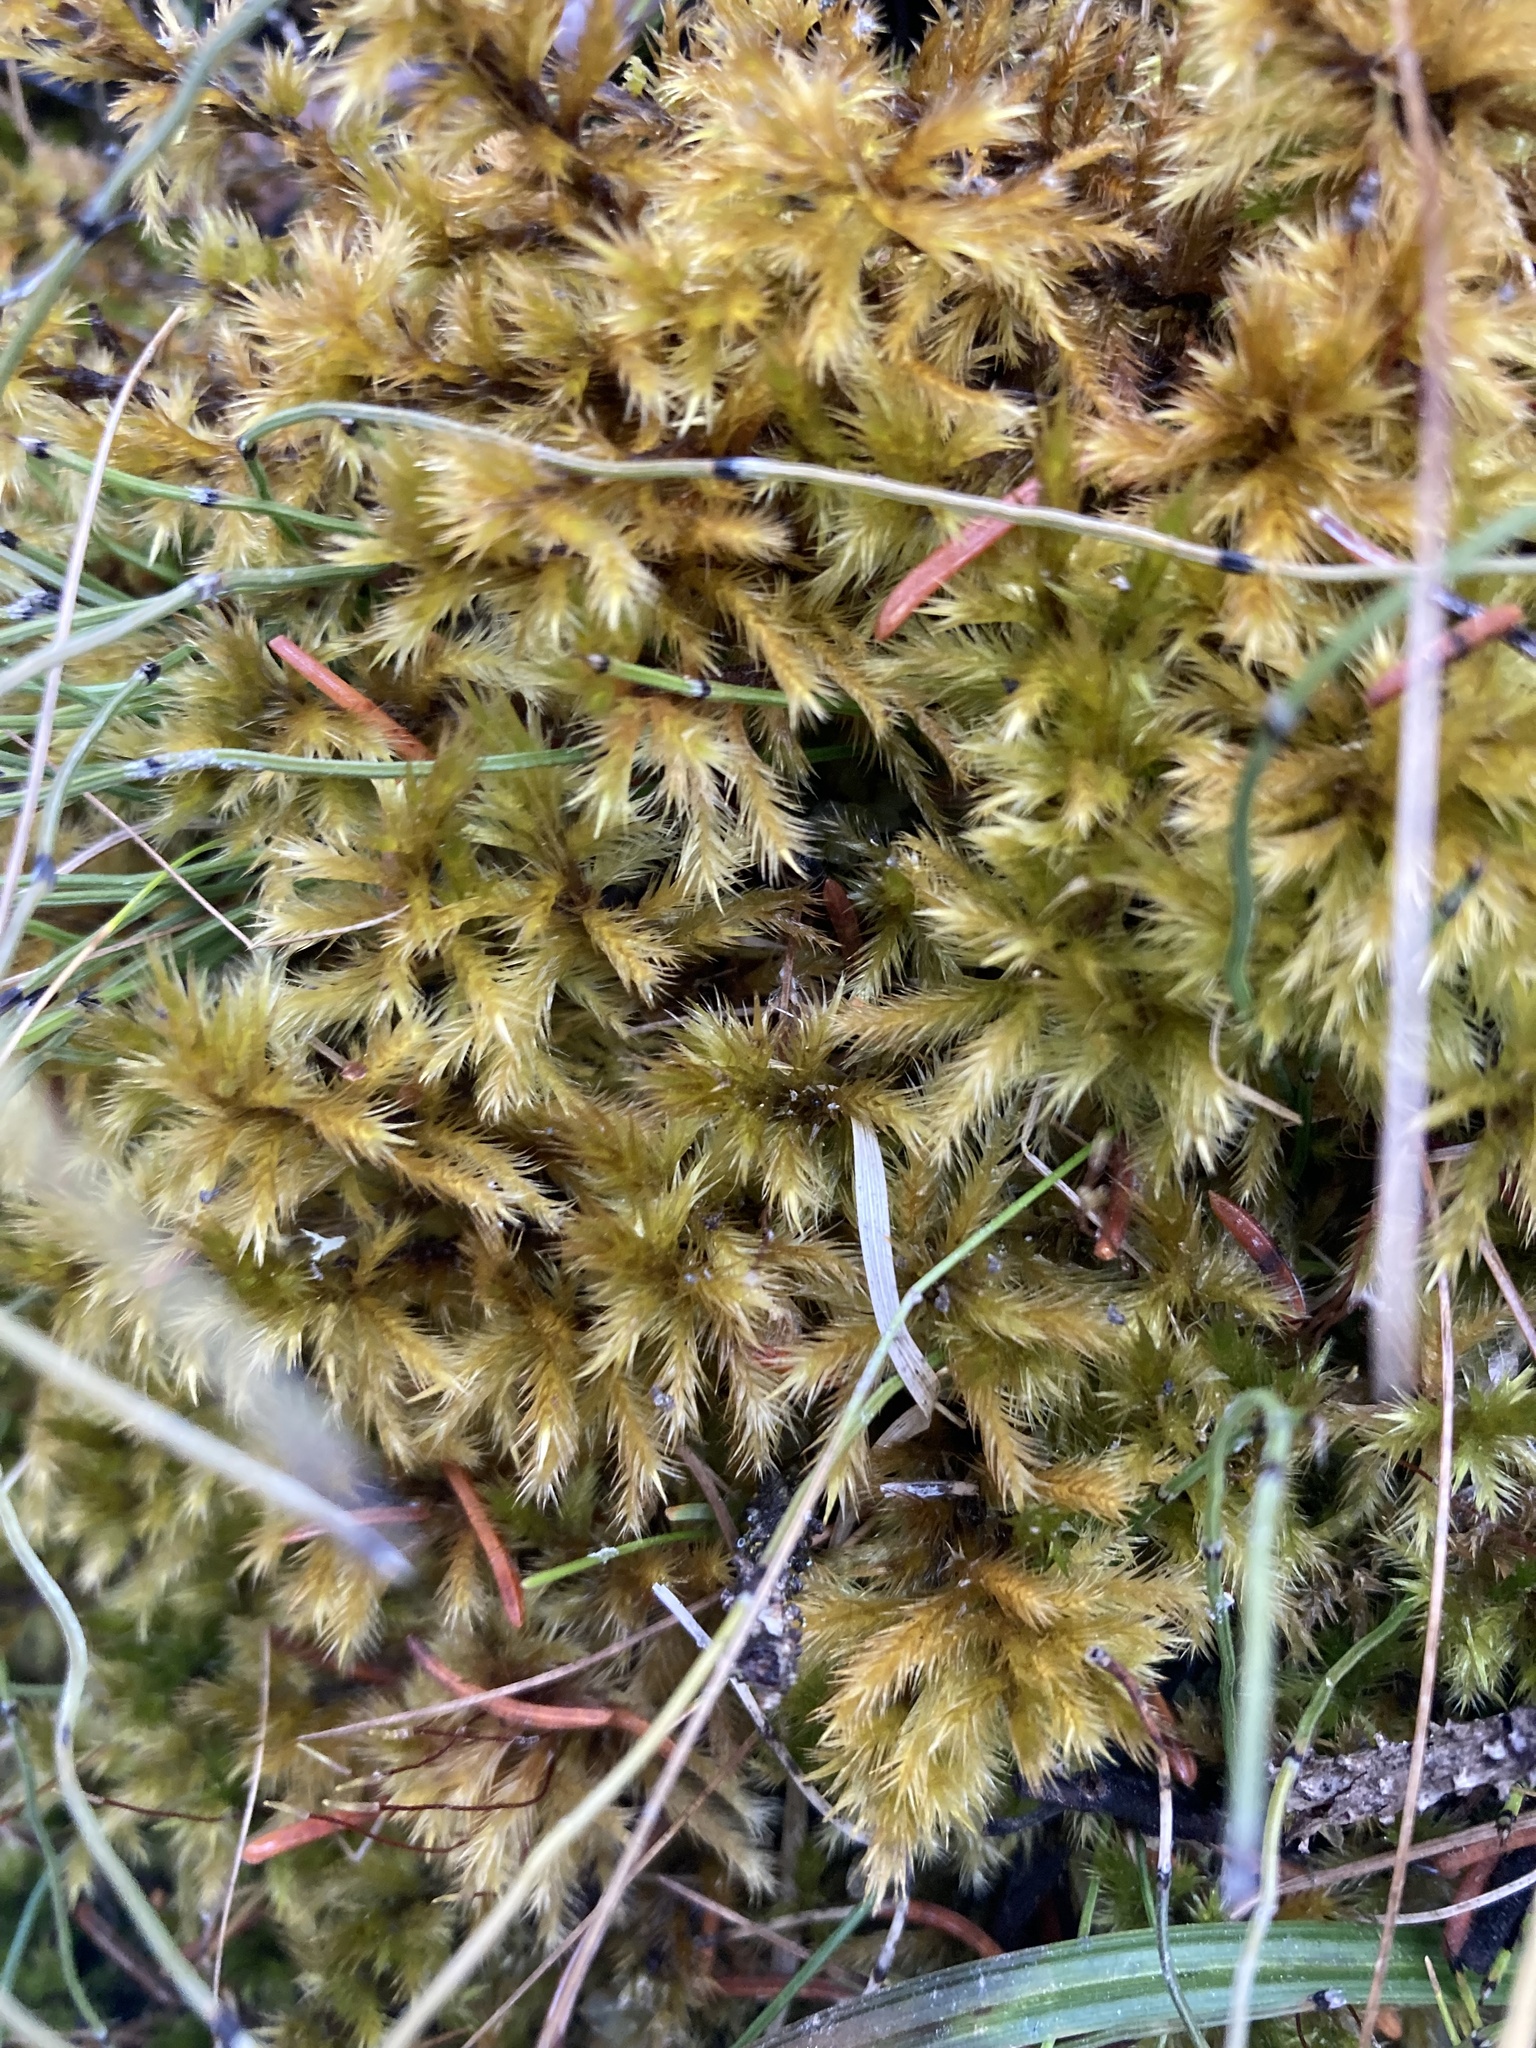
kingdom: Plantae
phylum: Bryophyta
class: Bryopsida
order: Hypnales
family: Amblystegiaceae
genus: Tomentypnum
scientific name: Tomentypnum nitens
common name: Golden fuzzy fen moss
